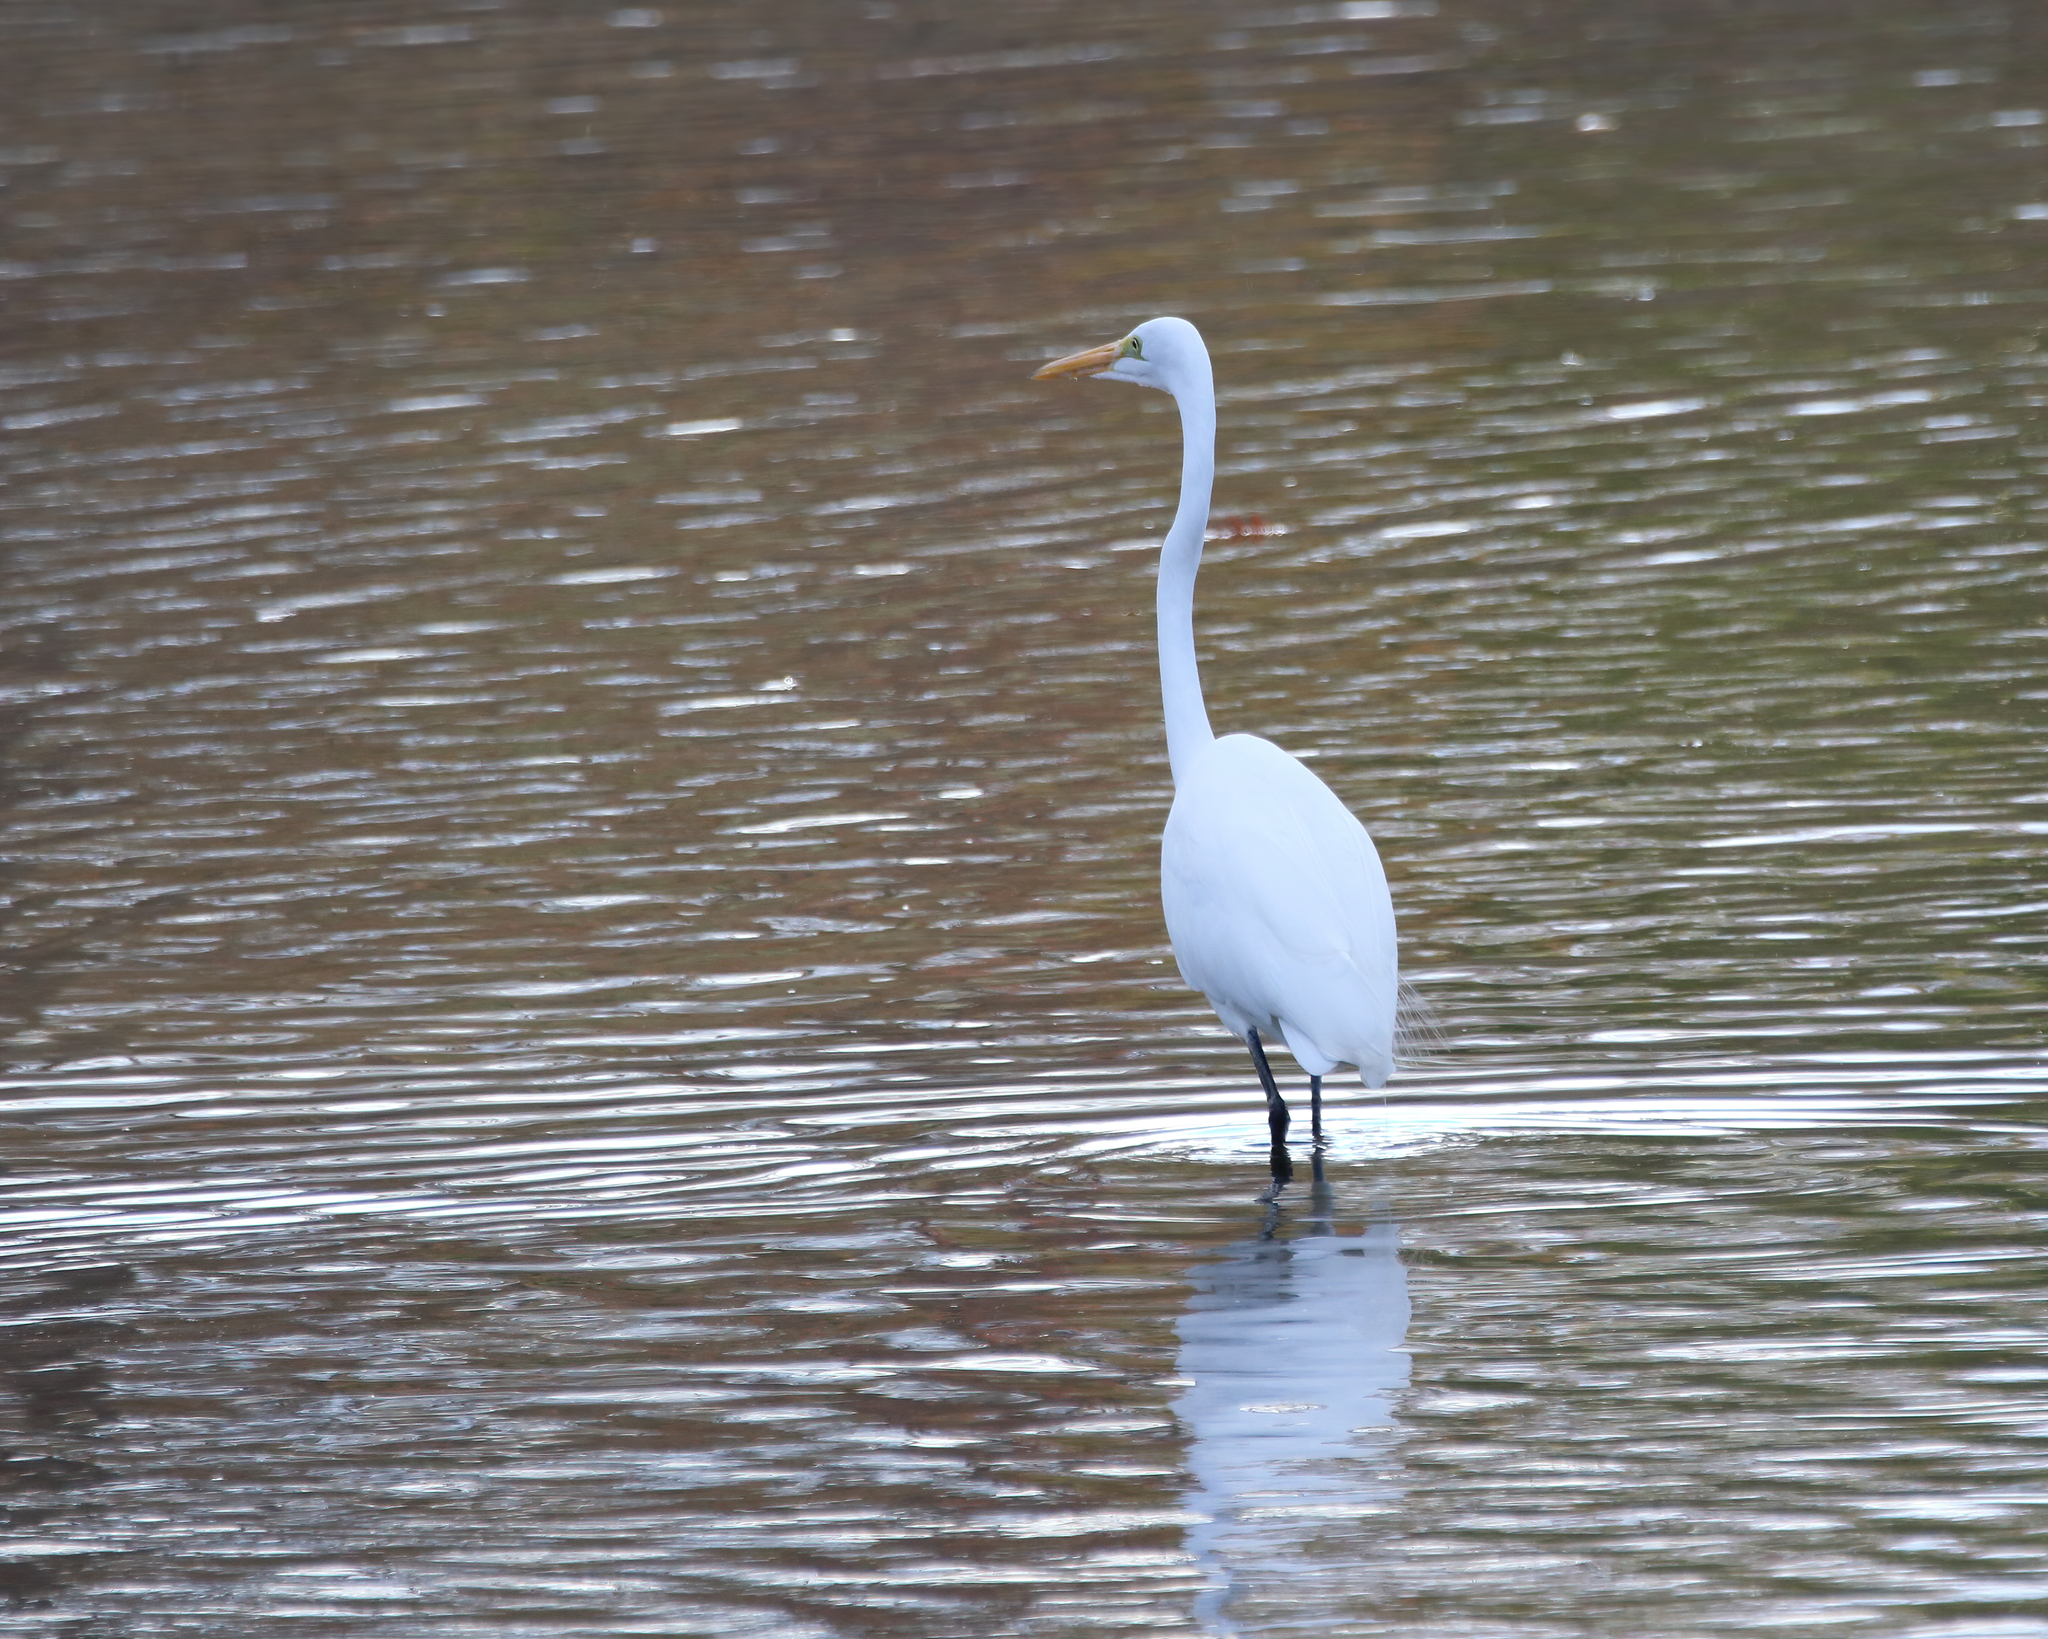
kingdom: Animalia
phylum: Chordata
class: Aves
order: Pelecaniformes
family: Ardeidae
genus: Ardea
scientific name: Ardea alba
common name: Great egret
